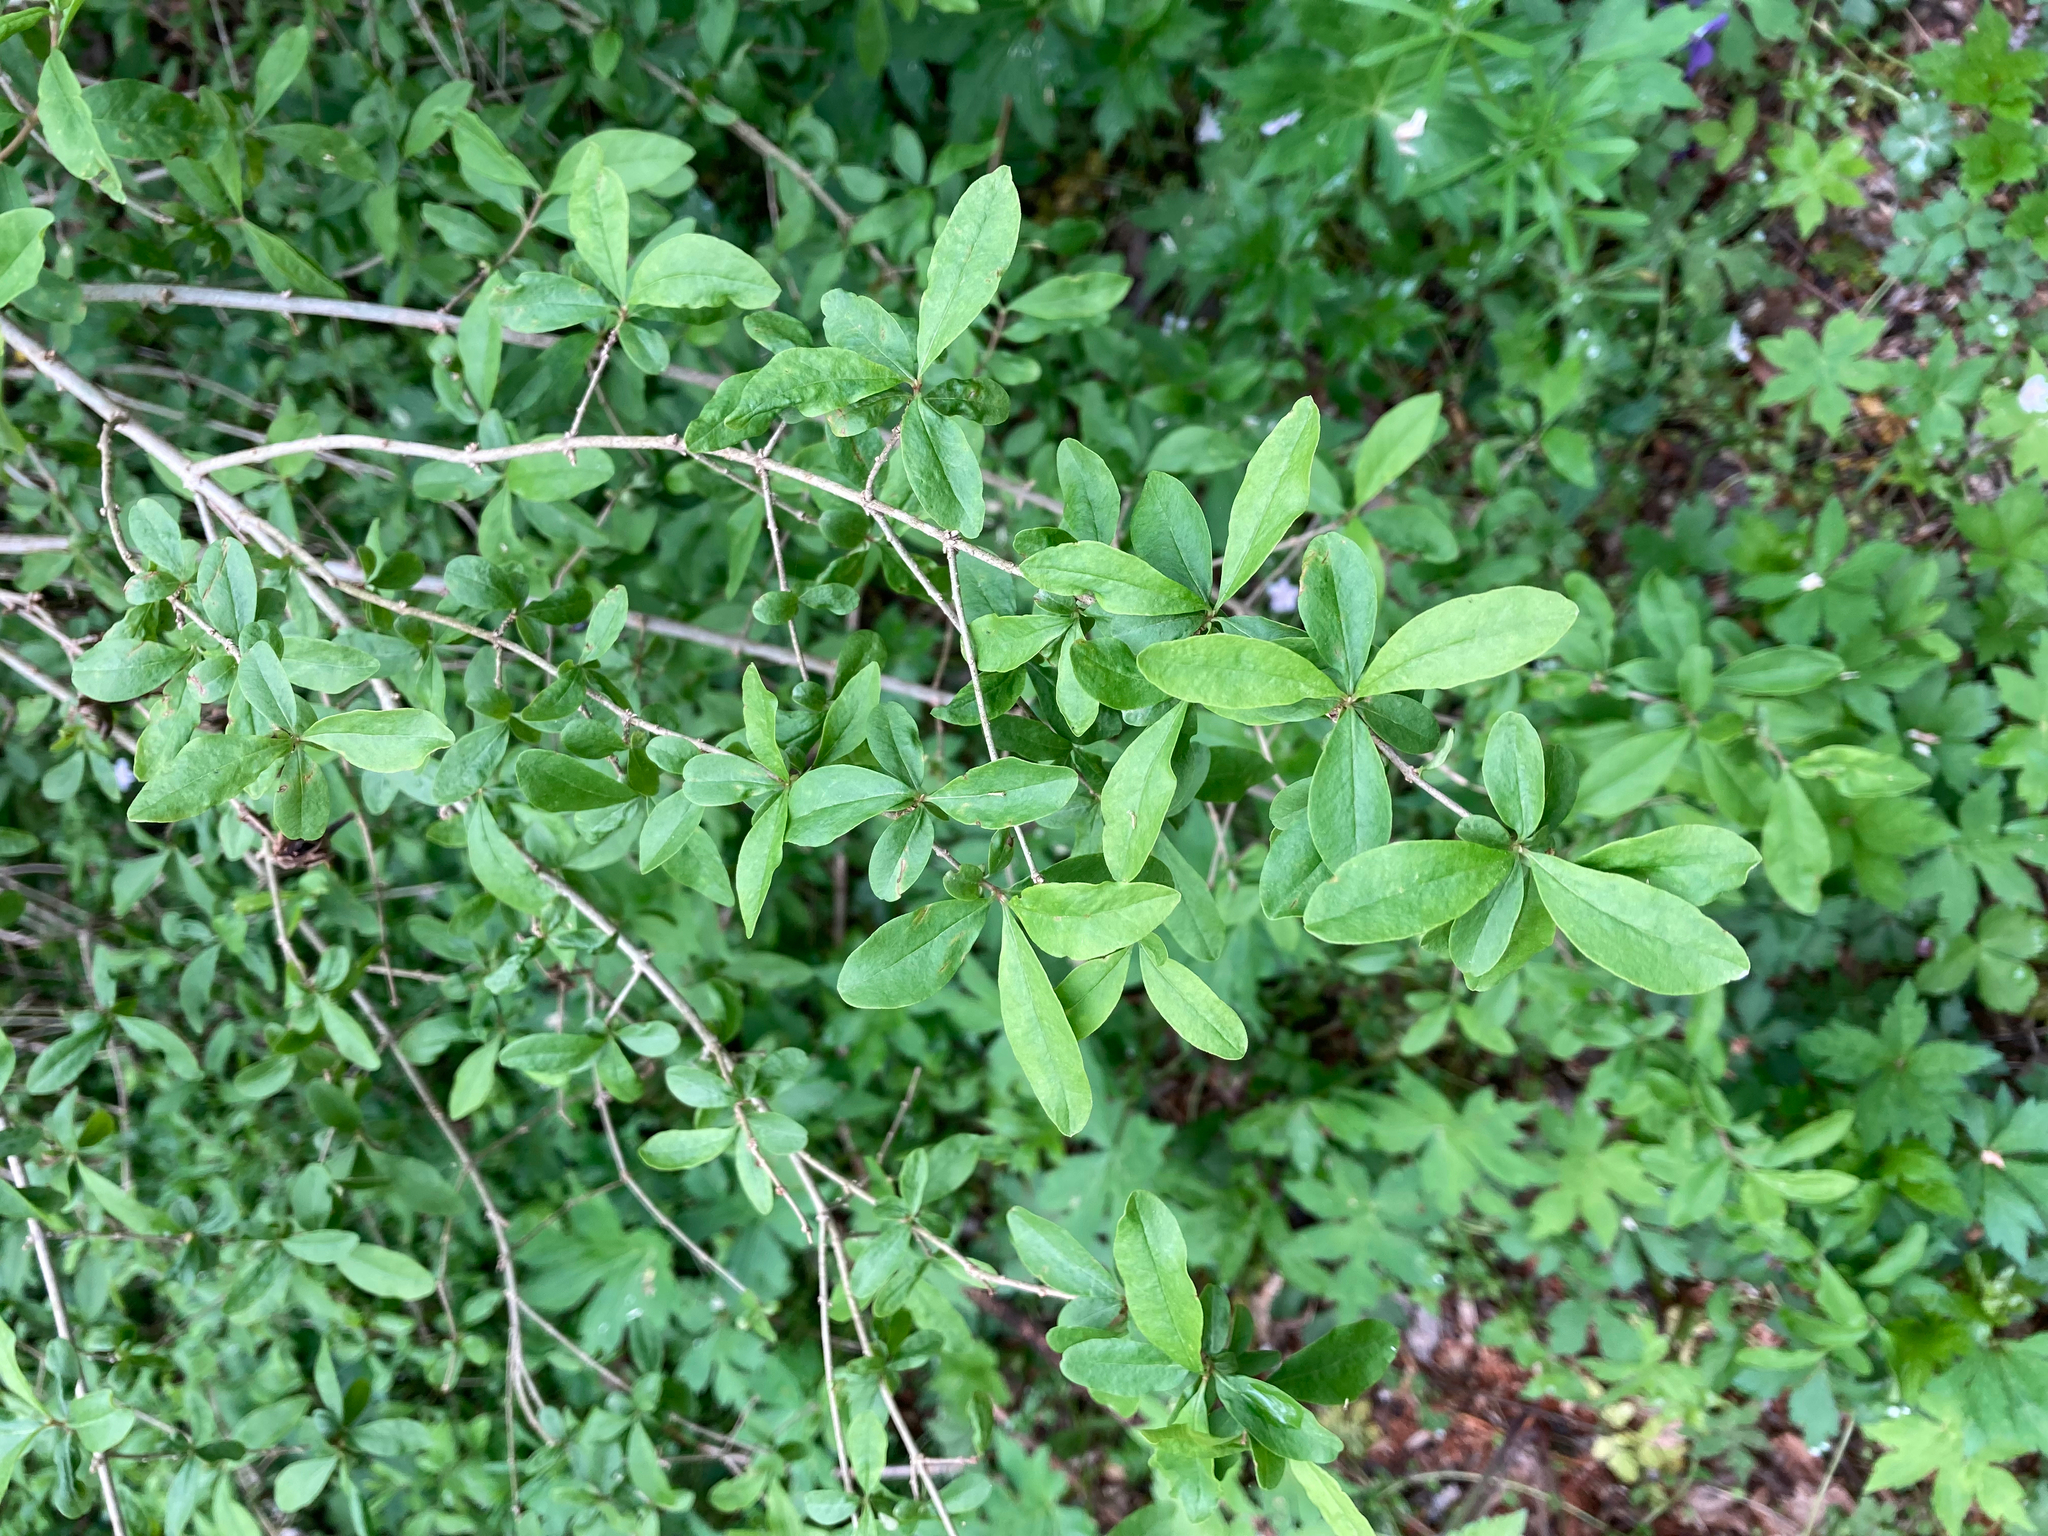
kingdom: Plantae
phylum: Tracheophyta
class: Magnoliopsida
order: Lamiales
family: Oleaceae
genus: Ligustrum
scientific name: Ligustrum obtusifolium
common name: Border privet
